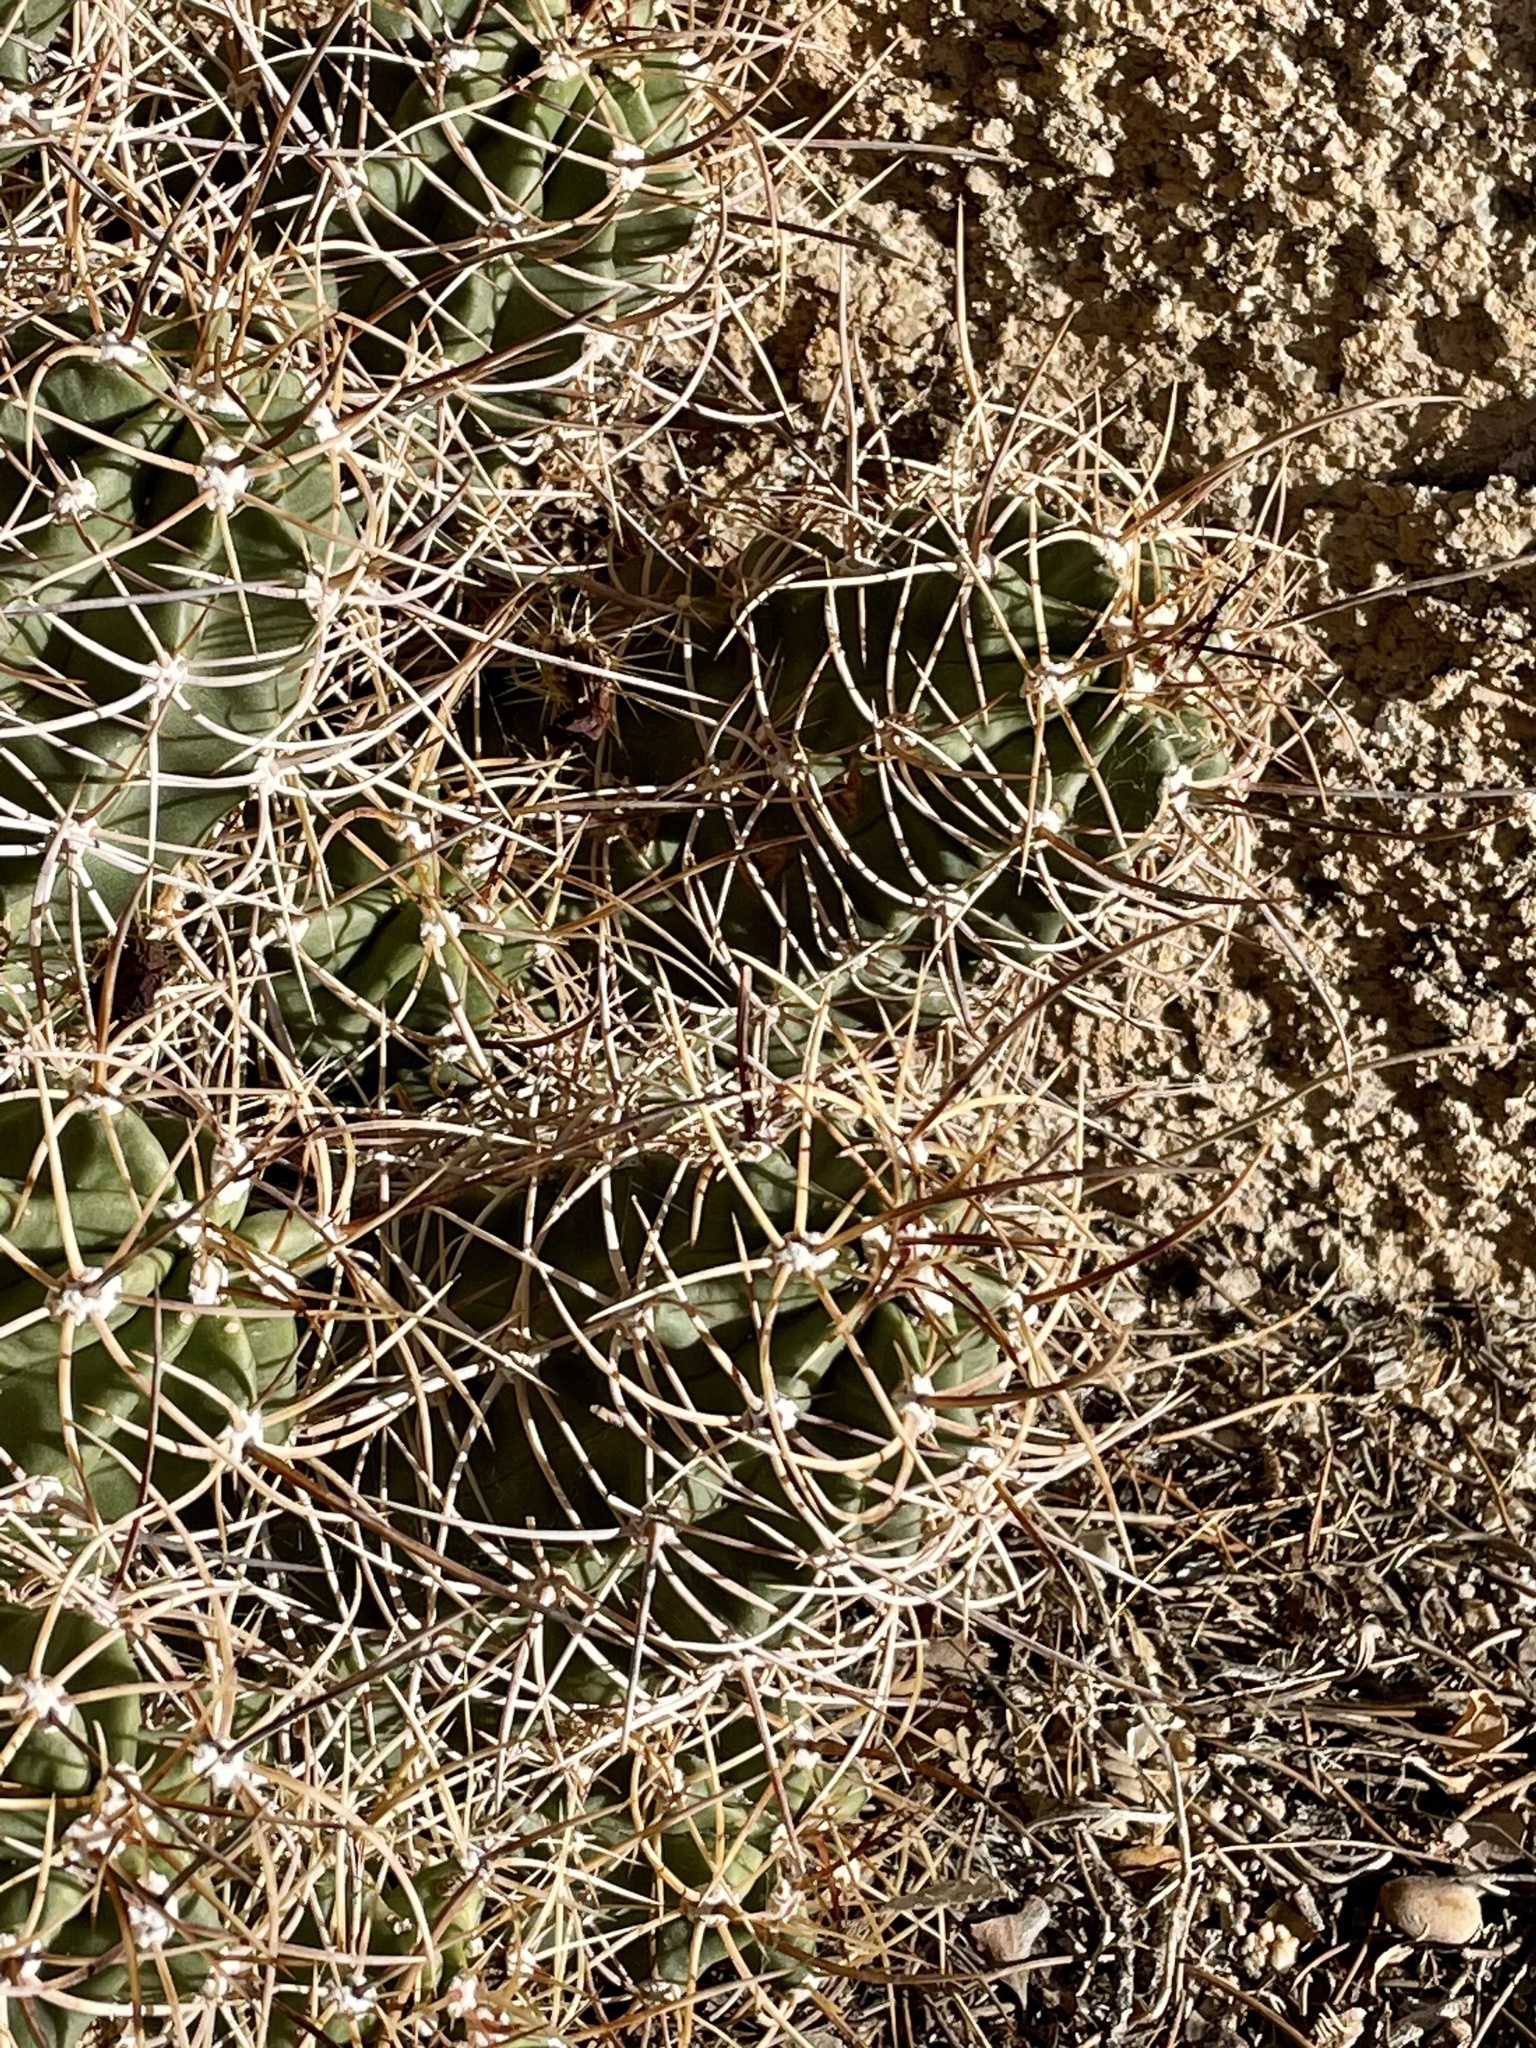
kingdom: Plantae
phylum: Tracheophyta
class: Magnoliopsida
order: Caryophyllales
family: Cactaceae
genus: Echinocereus
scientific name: Echinocereus triglochidiatus
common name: Claretcup hedgehog
